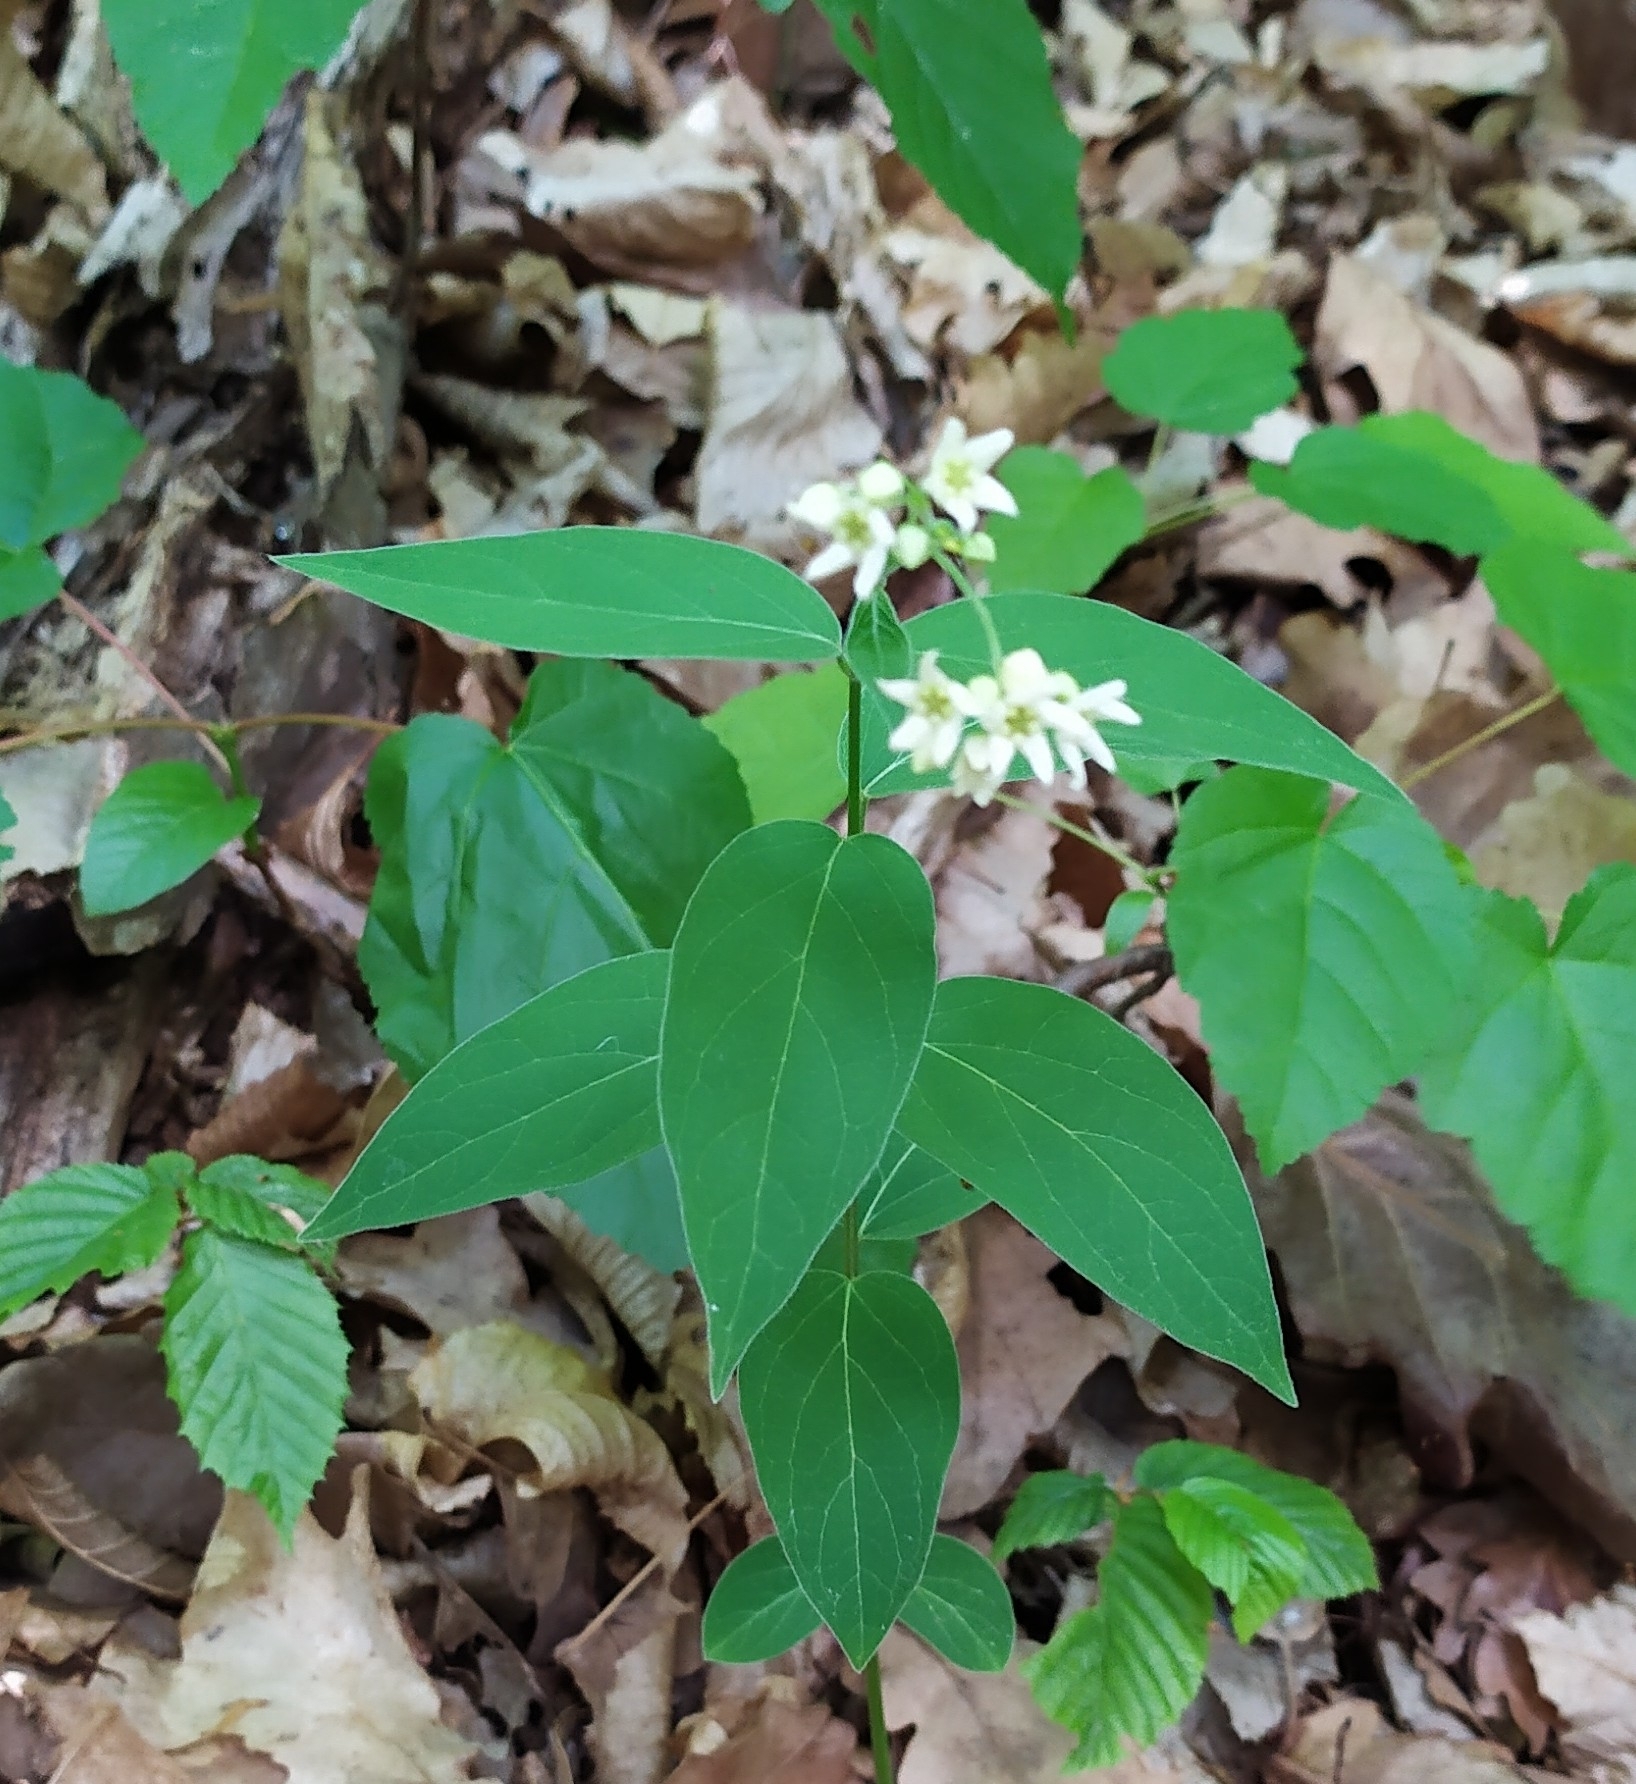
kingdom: Plantae
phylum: Tracheophyta
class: Magnoliopsida
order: Gentianales
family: Apocynaceae
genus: Vincetoxicum
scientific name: Vincetoxicum hirundinaria
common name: White swallowwort
